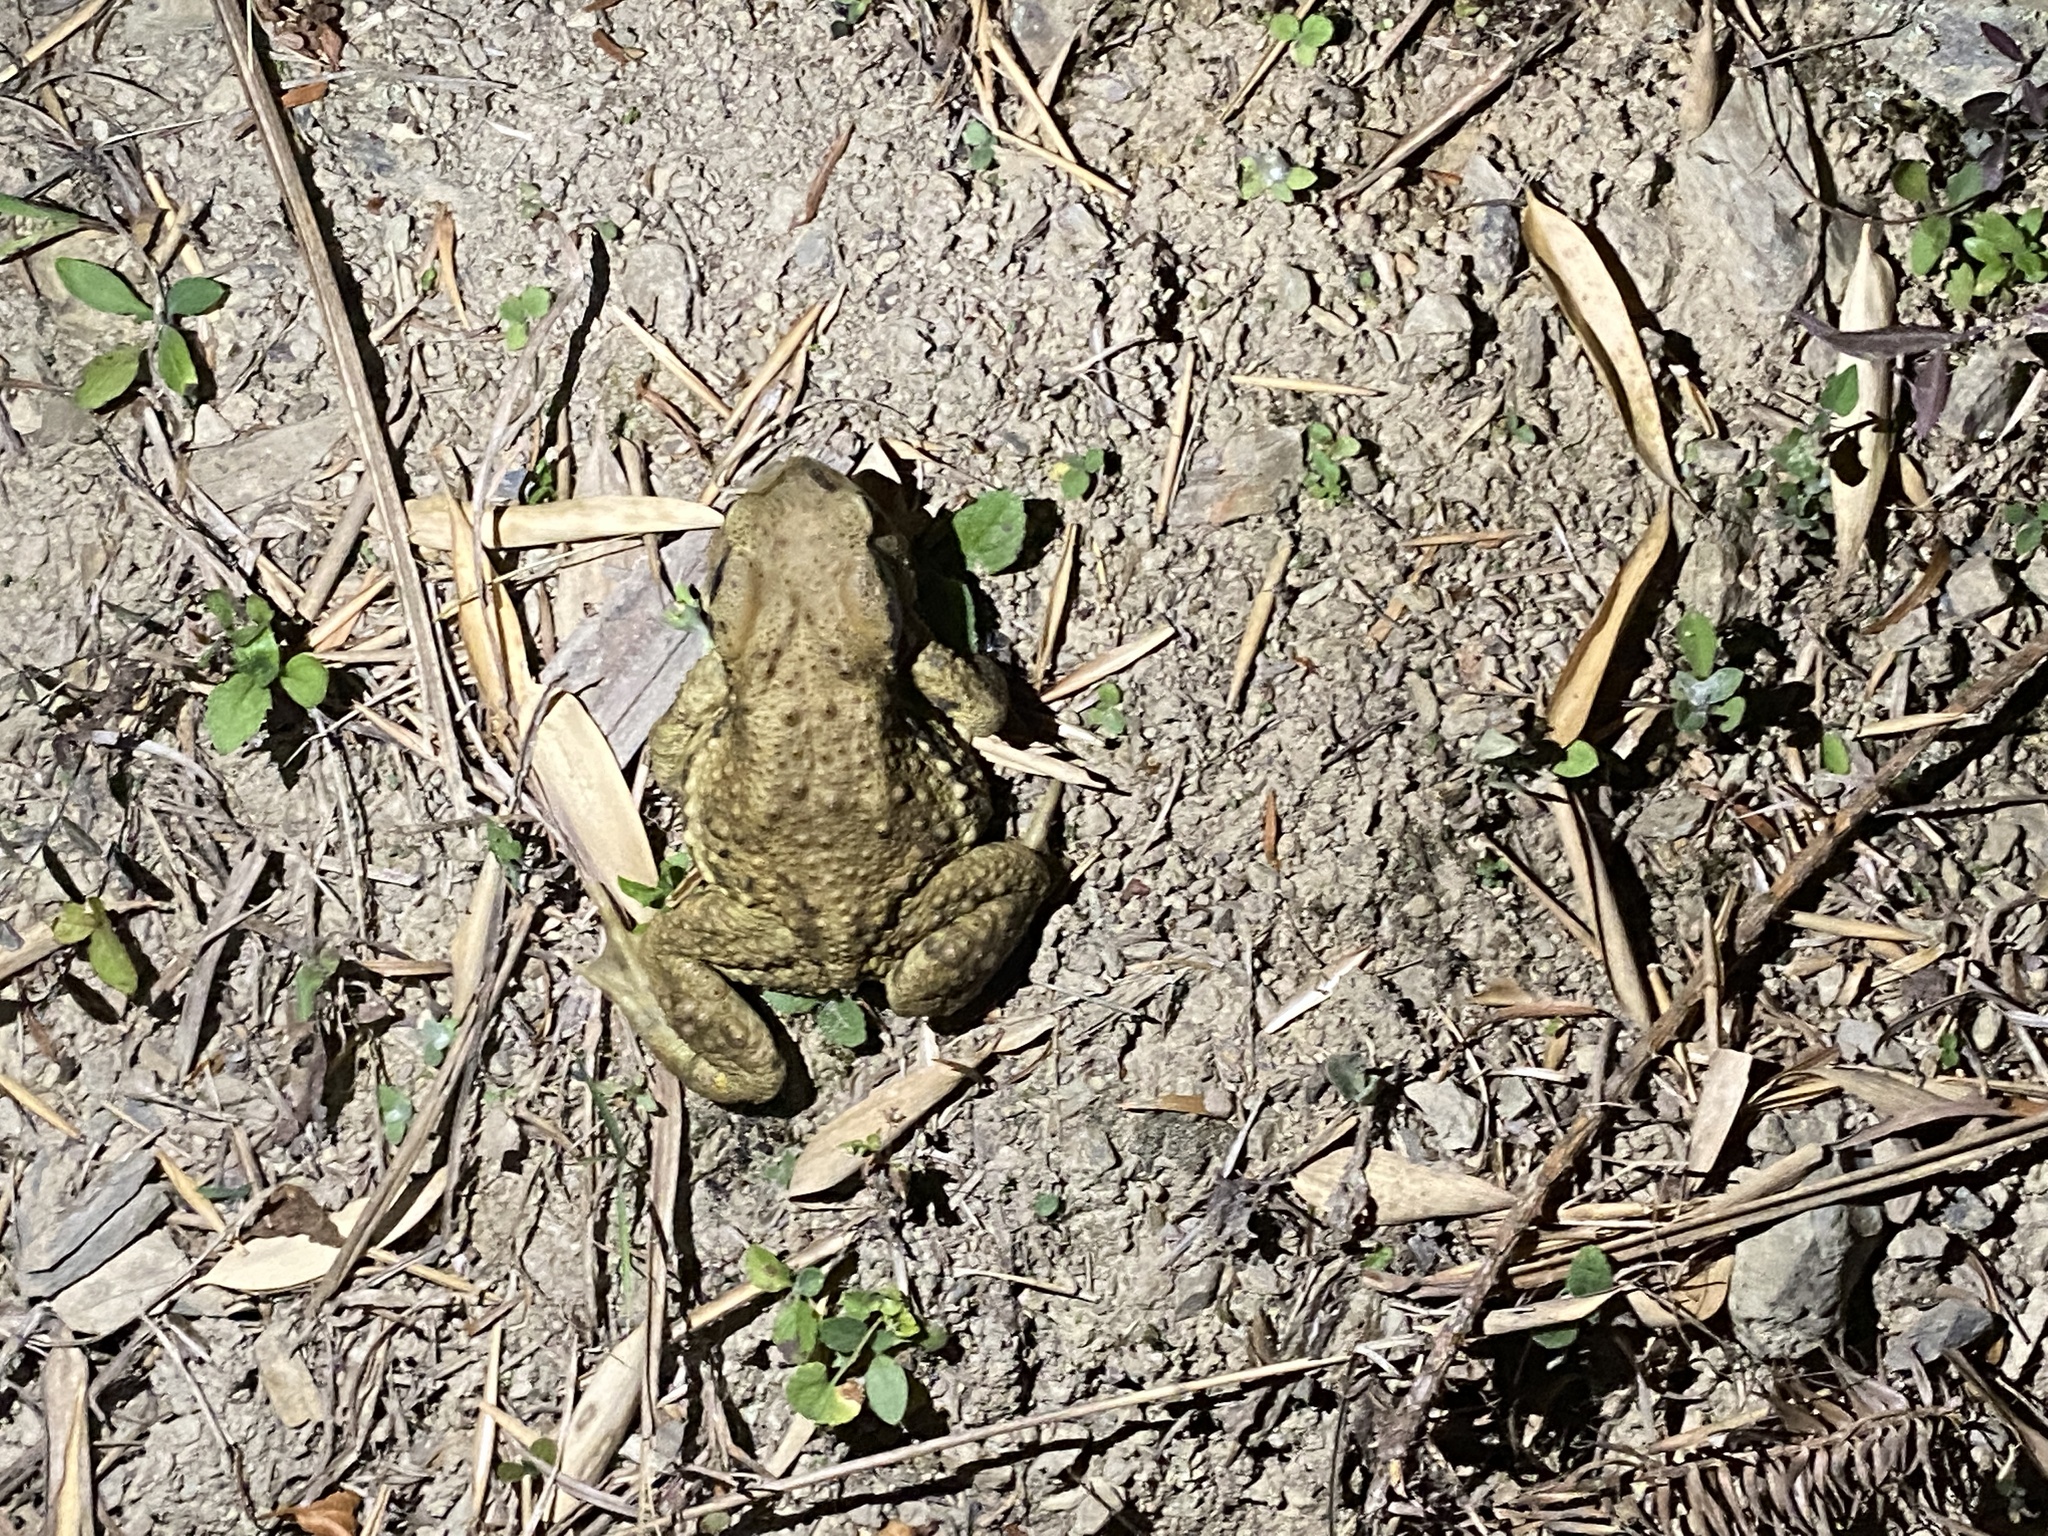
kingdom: Animalia
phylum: Chordata
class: Amphibia
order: Anura
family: Bufonidae
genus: Bufo
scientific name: Bufo bankorensis
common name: Bankor toad
